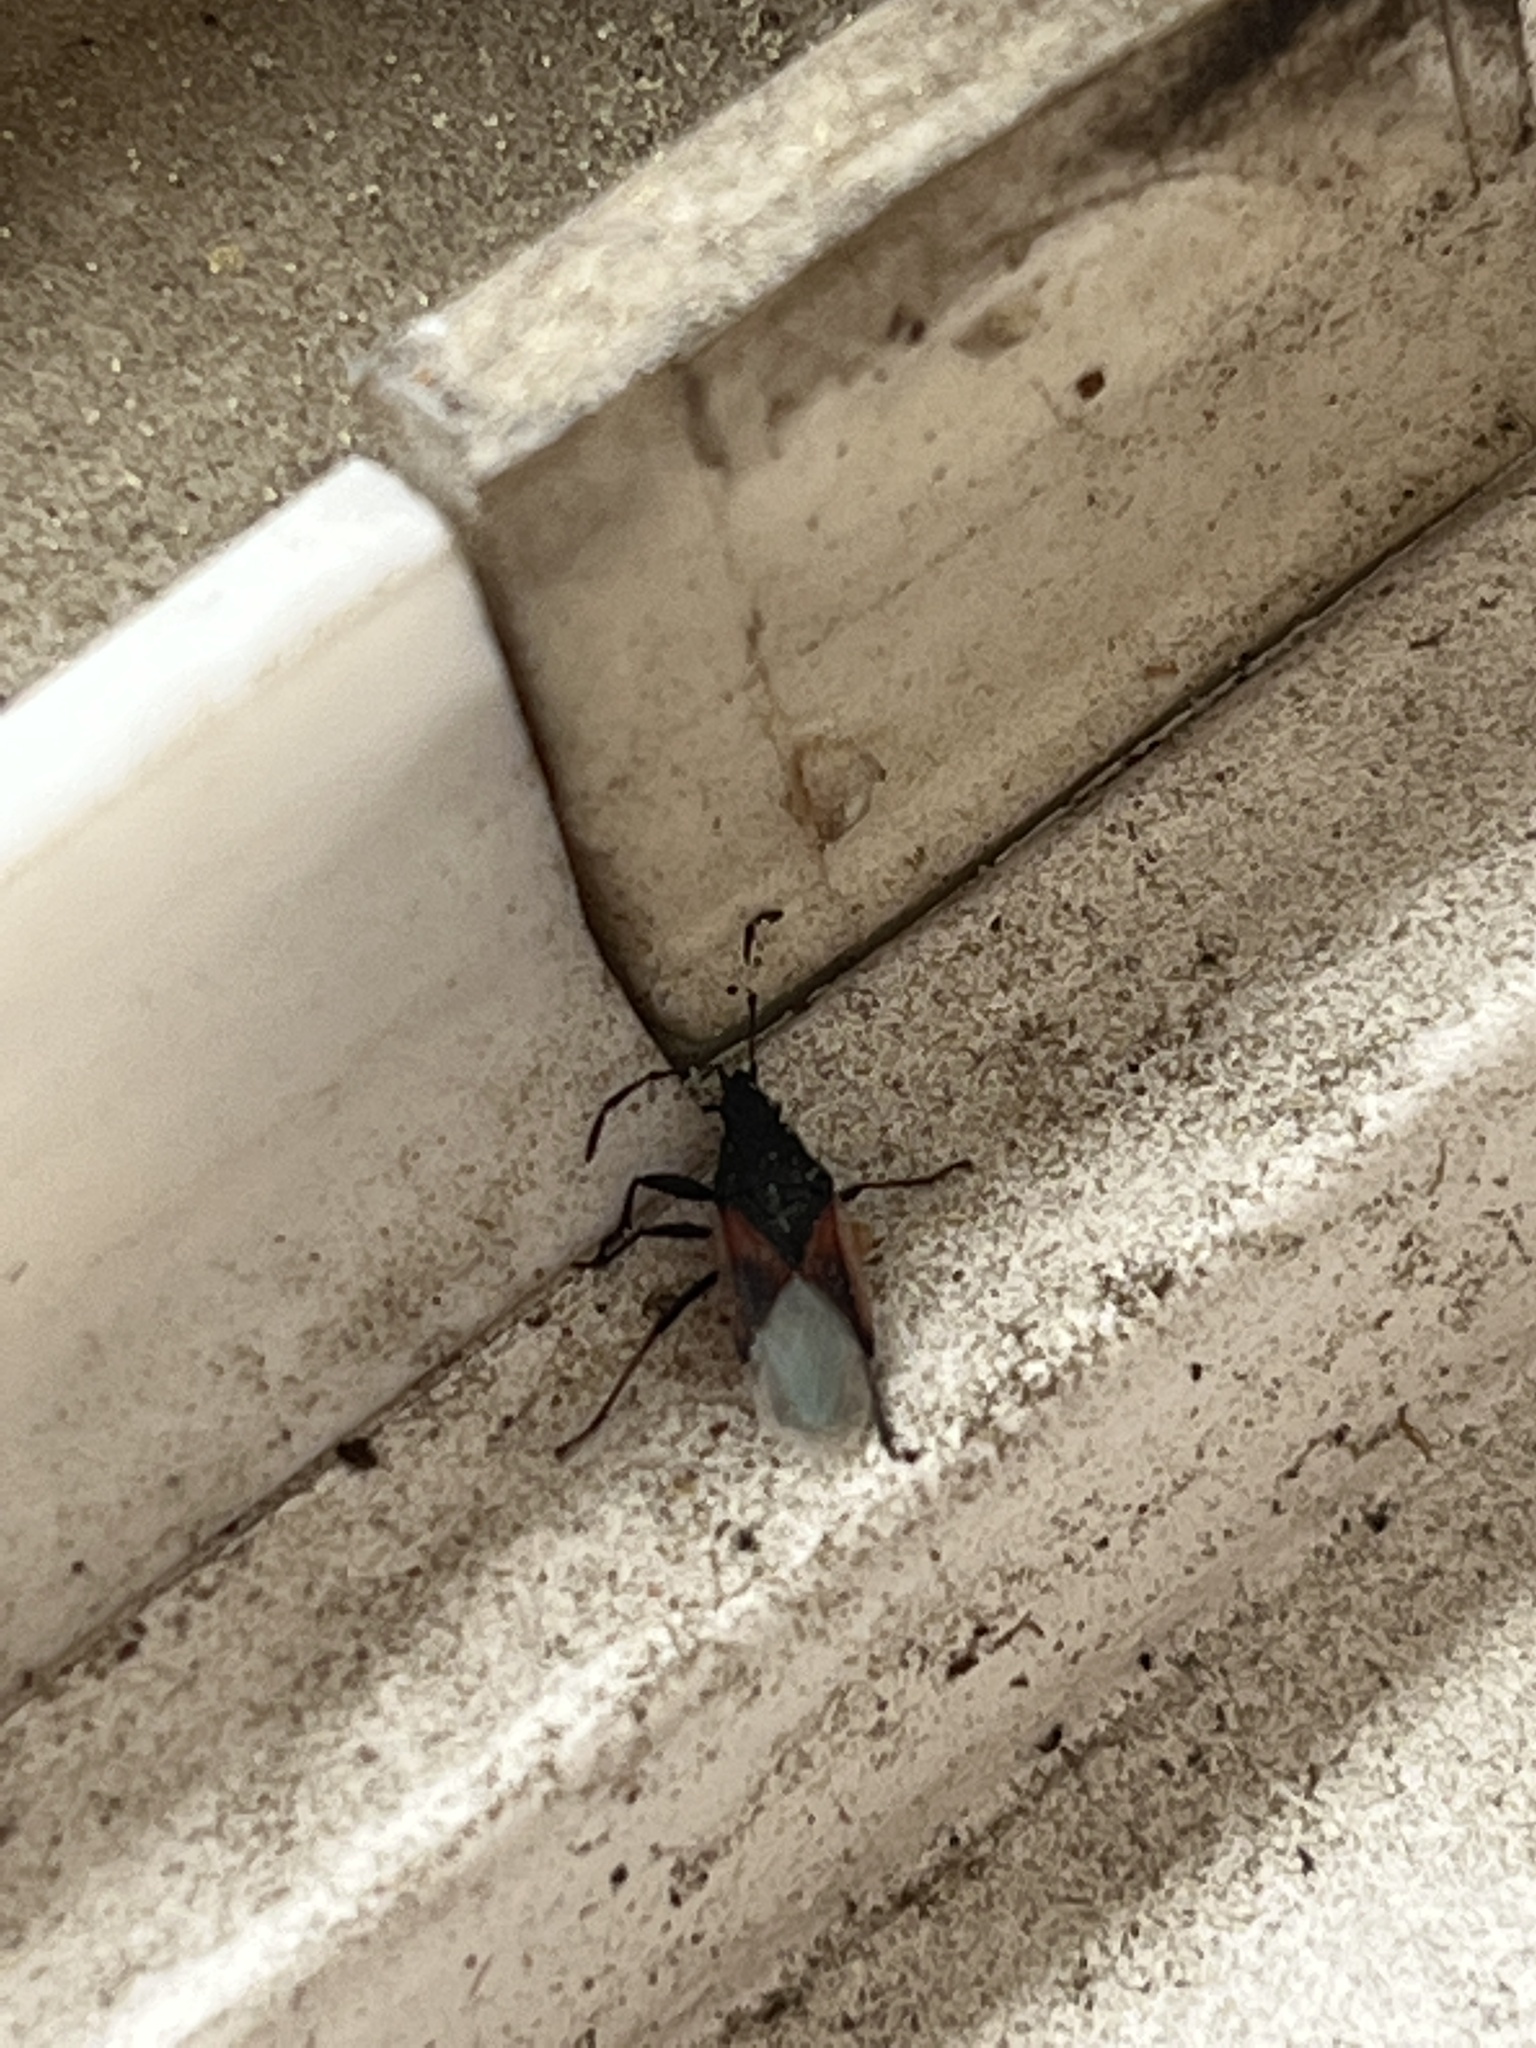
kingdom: Animalia
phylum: Arthropoda
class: Insecta
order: Hemiptera
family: Oxycarenidae
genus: Oxycarenus
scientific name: Oxycarenus lavaterae
